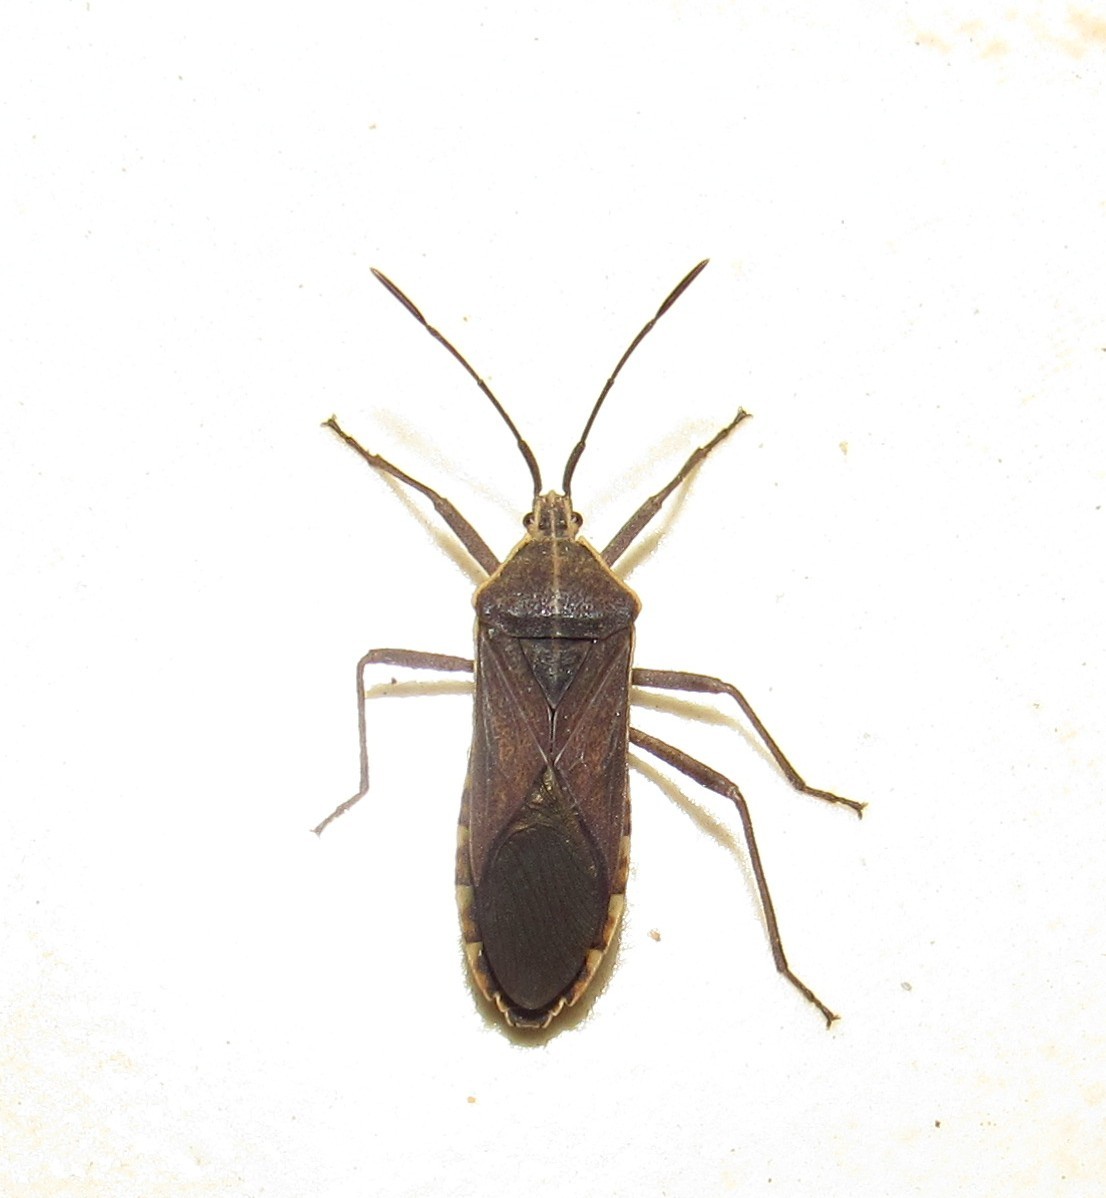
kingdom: Animalia
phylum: Arthropoda
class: Insecta
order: Hemiptera
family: Coreidae
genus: Anasa
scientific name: Anasa trilineata
